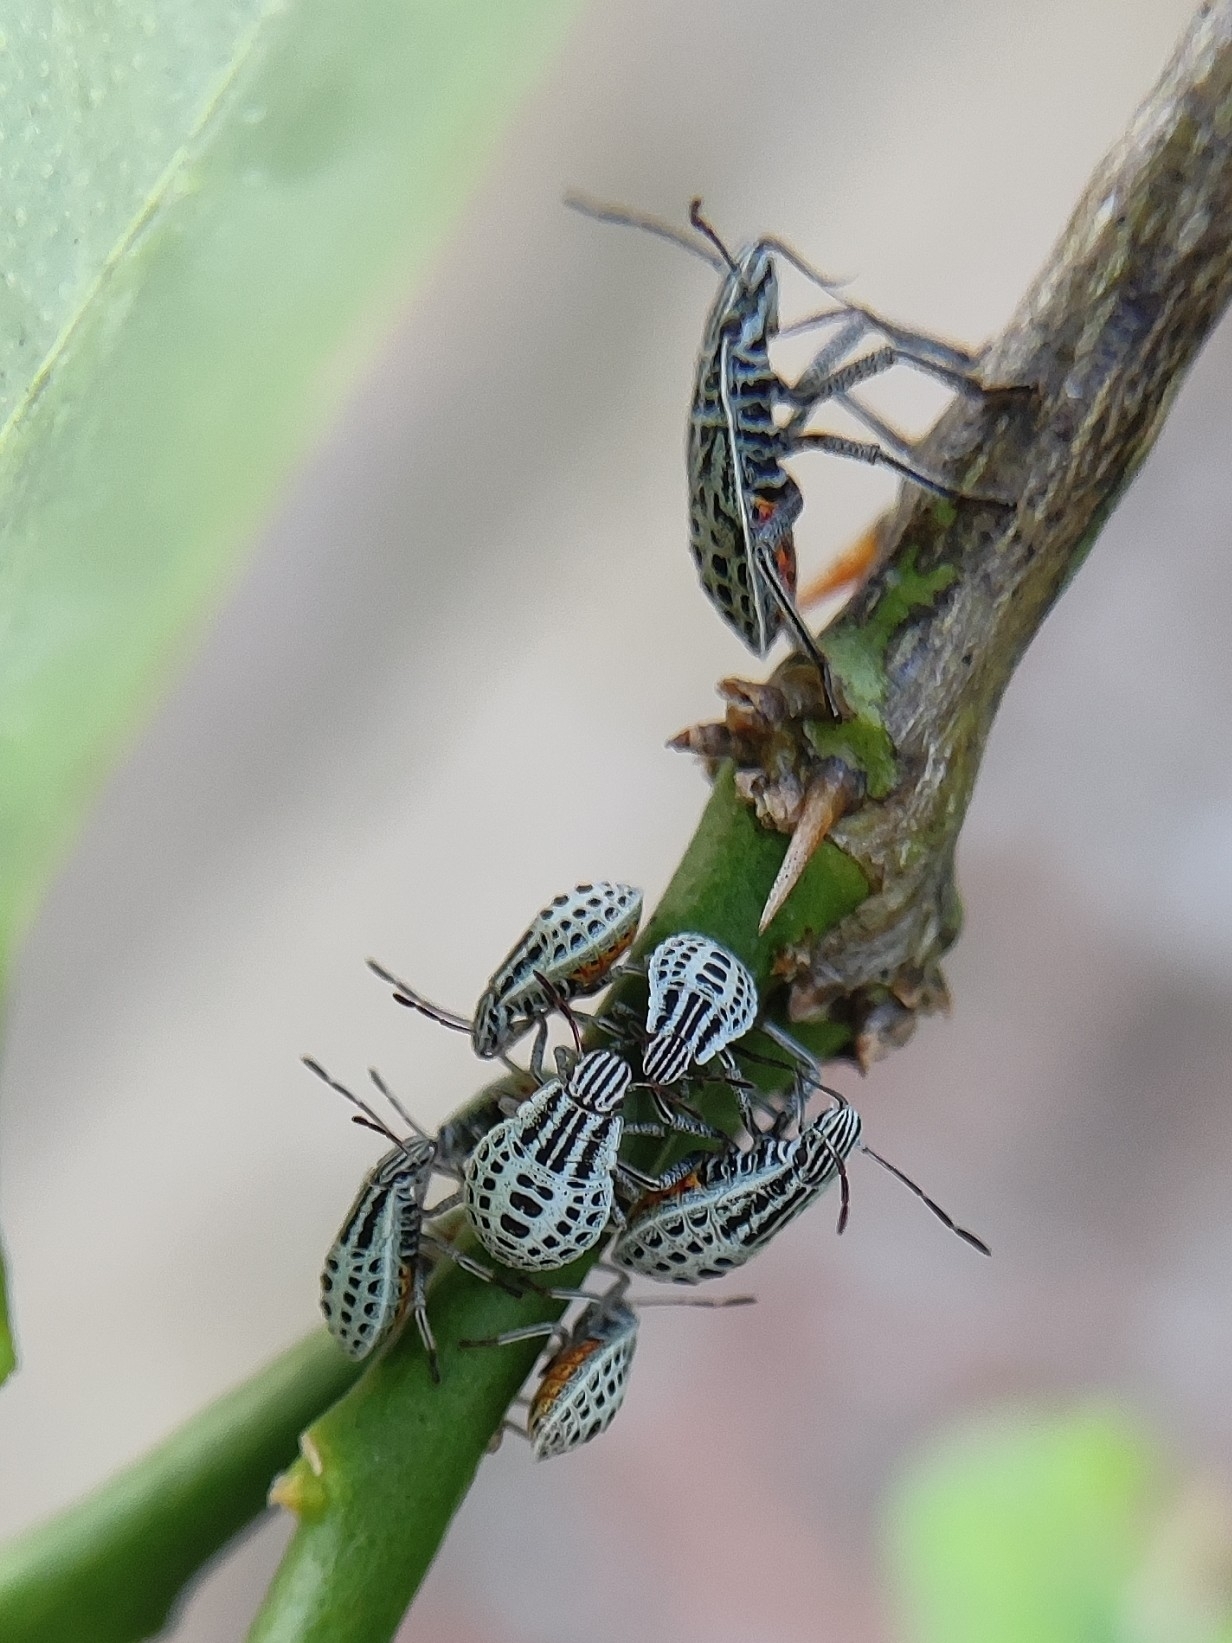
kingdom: Animalia
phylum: Arthropoda
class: Insecta
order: Hemiptera
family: Pentatomidae
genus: Cappaea
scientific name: Cappaea taprobanensis
